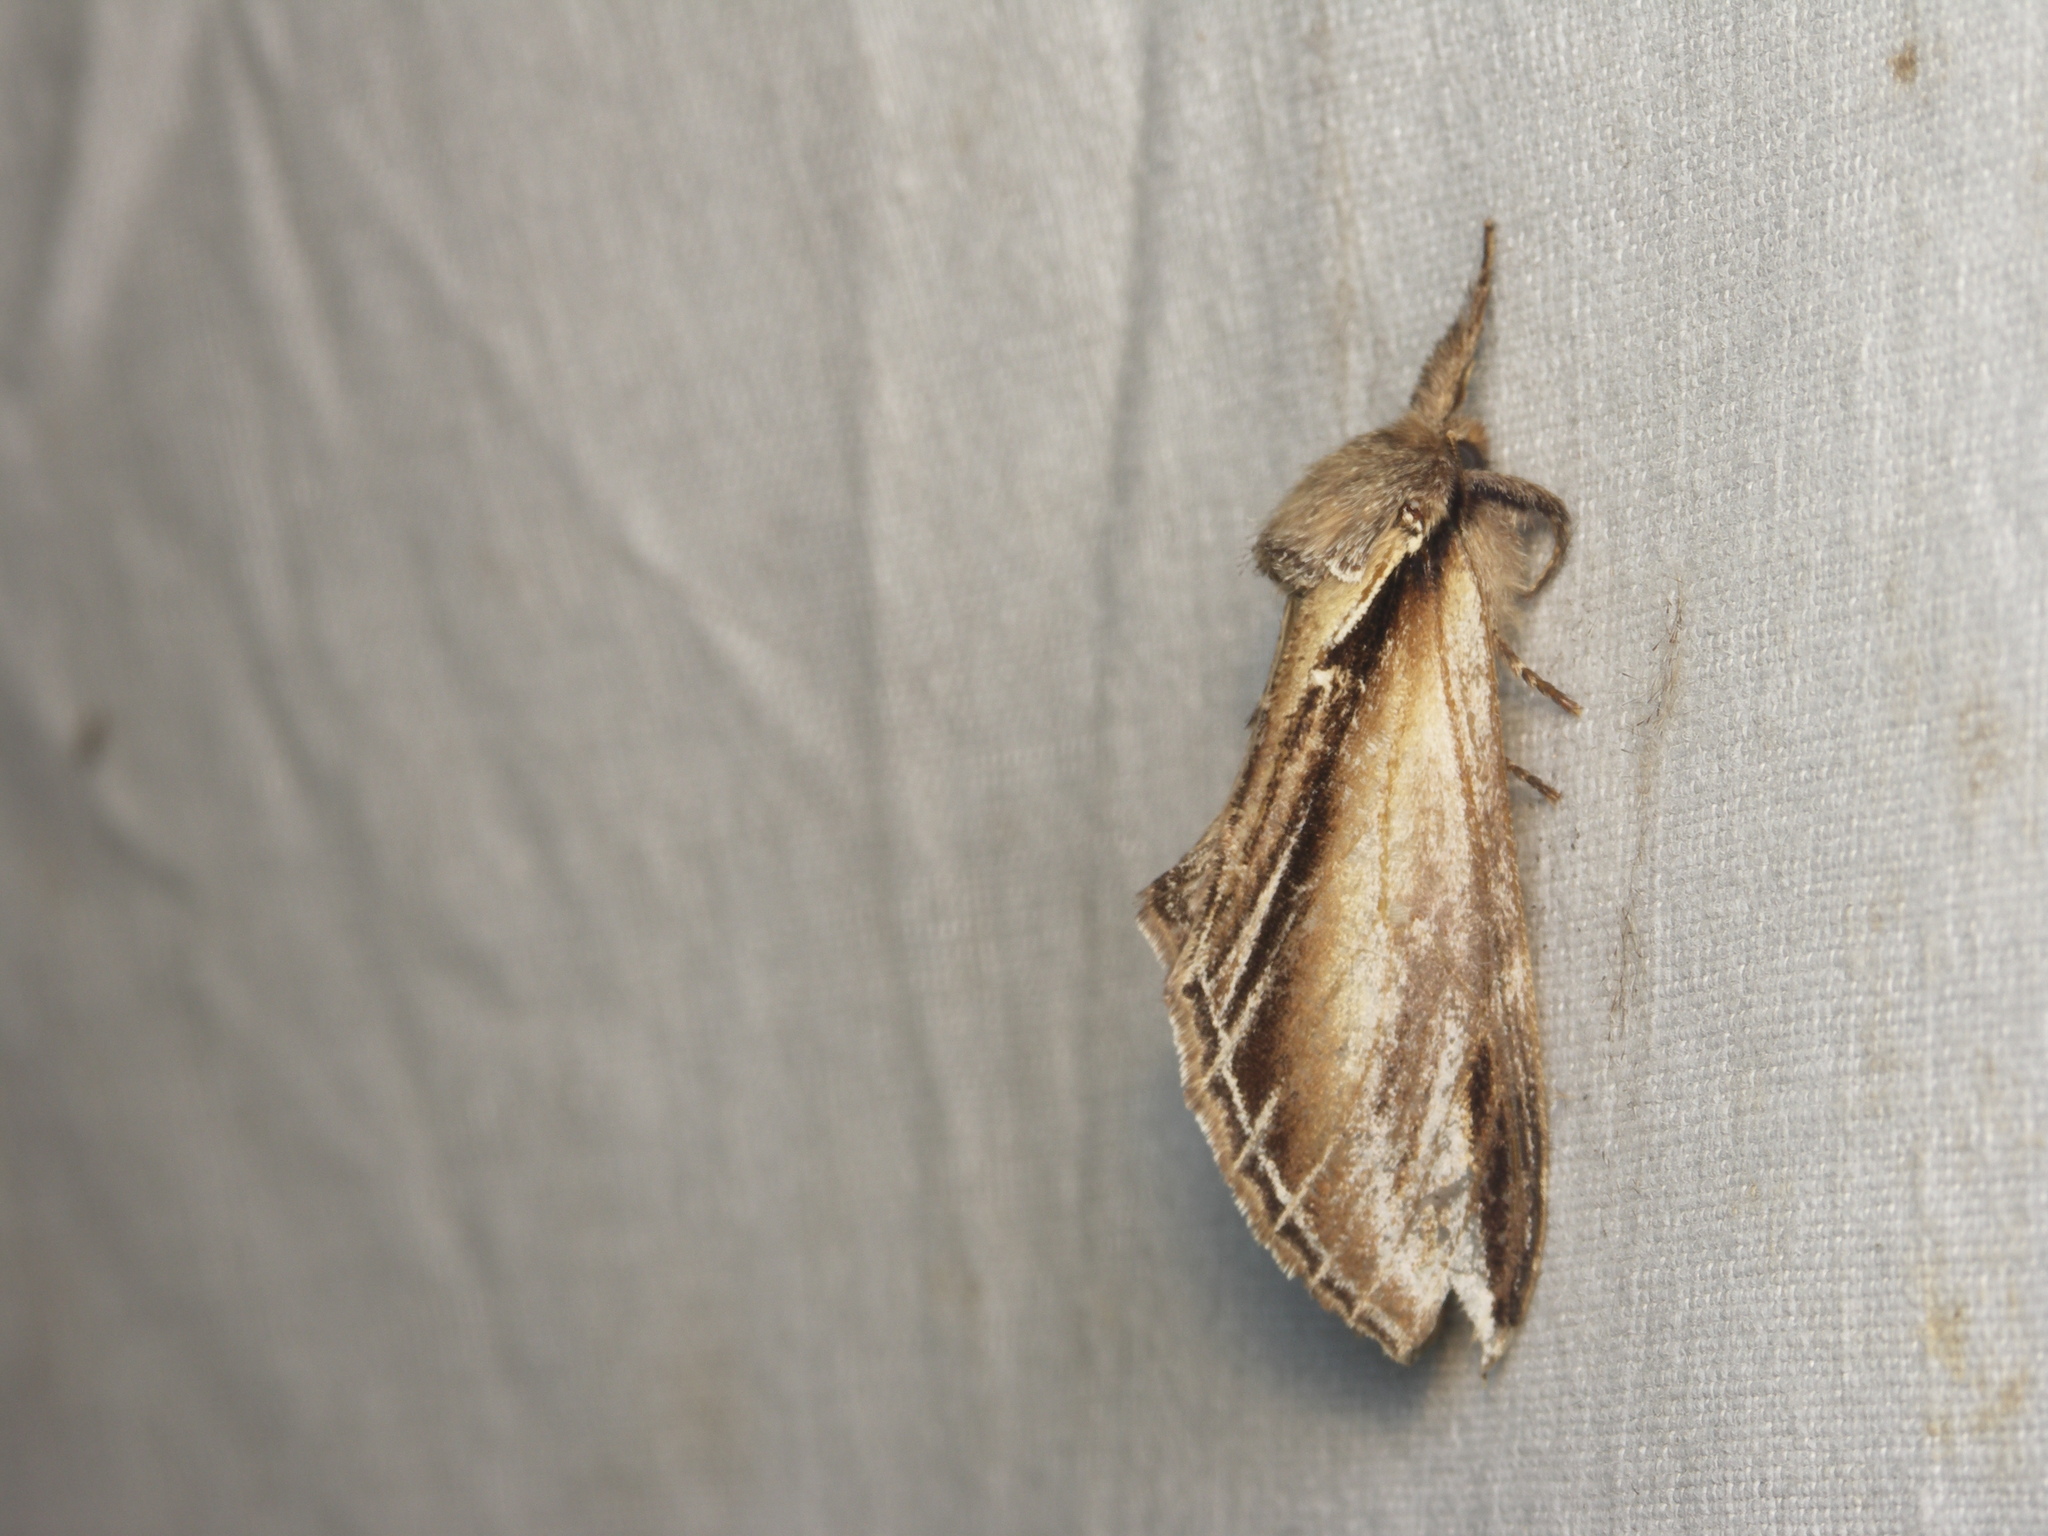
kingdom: Animalia
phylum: Arthropoda
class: Insecta
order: Lepidoptera
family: Notodontidae
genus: Pheosia
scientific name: Pheosia tremula
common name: Swallow prominent
